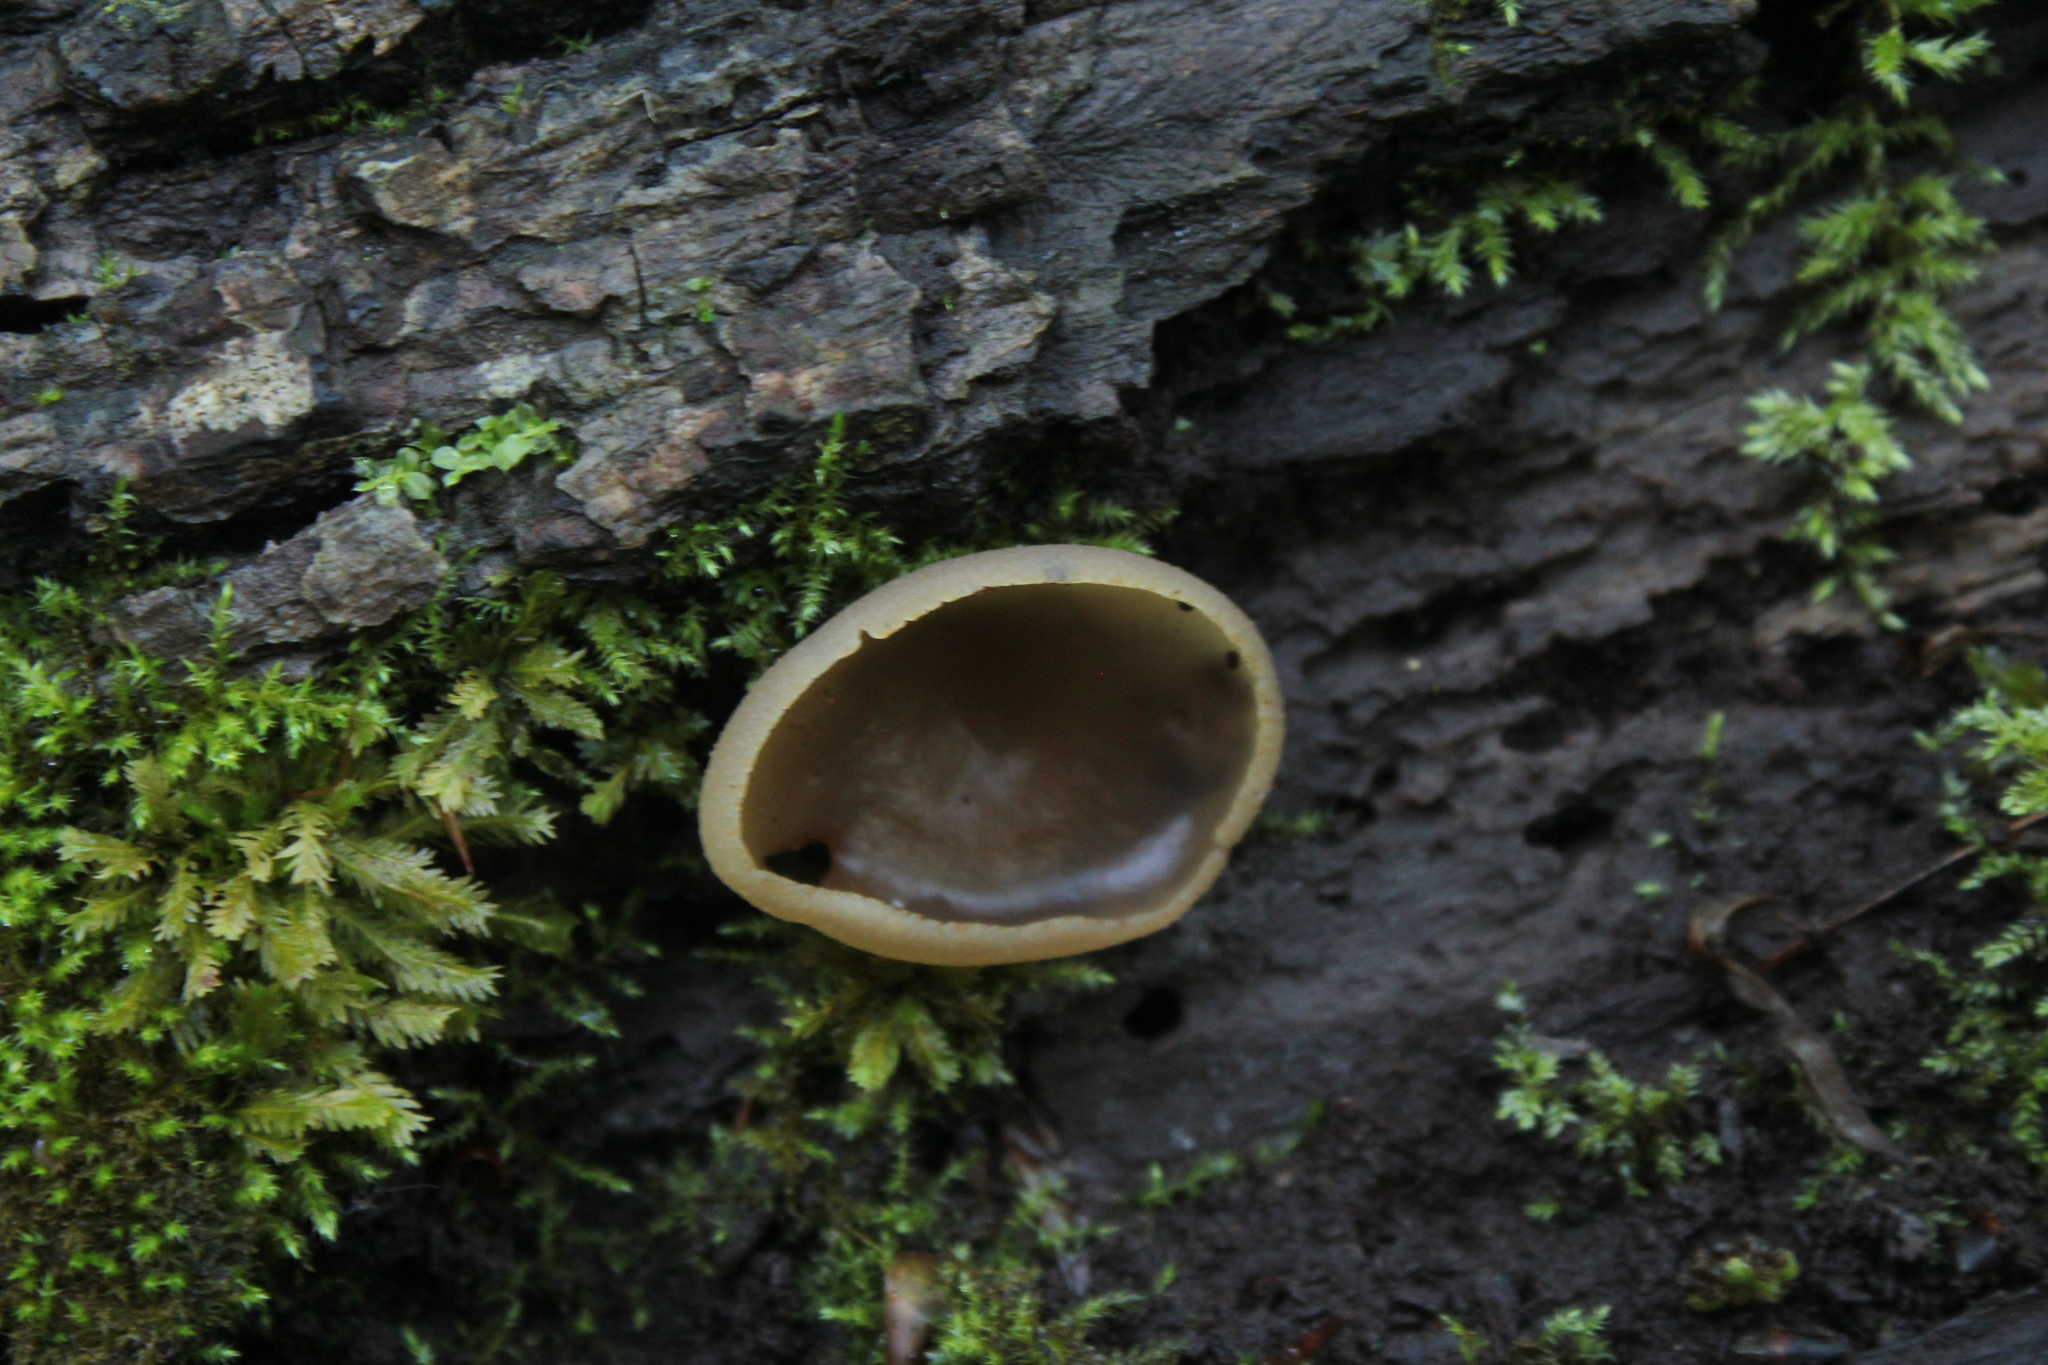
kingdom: Fungi
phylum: Ascomycota
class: Pezizomycetes
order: Pezizales
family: Pezizaceae
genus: Peziza
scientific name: Peziza varia
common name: Layered cup
